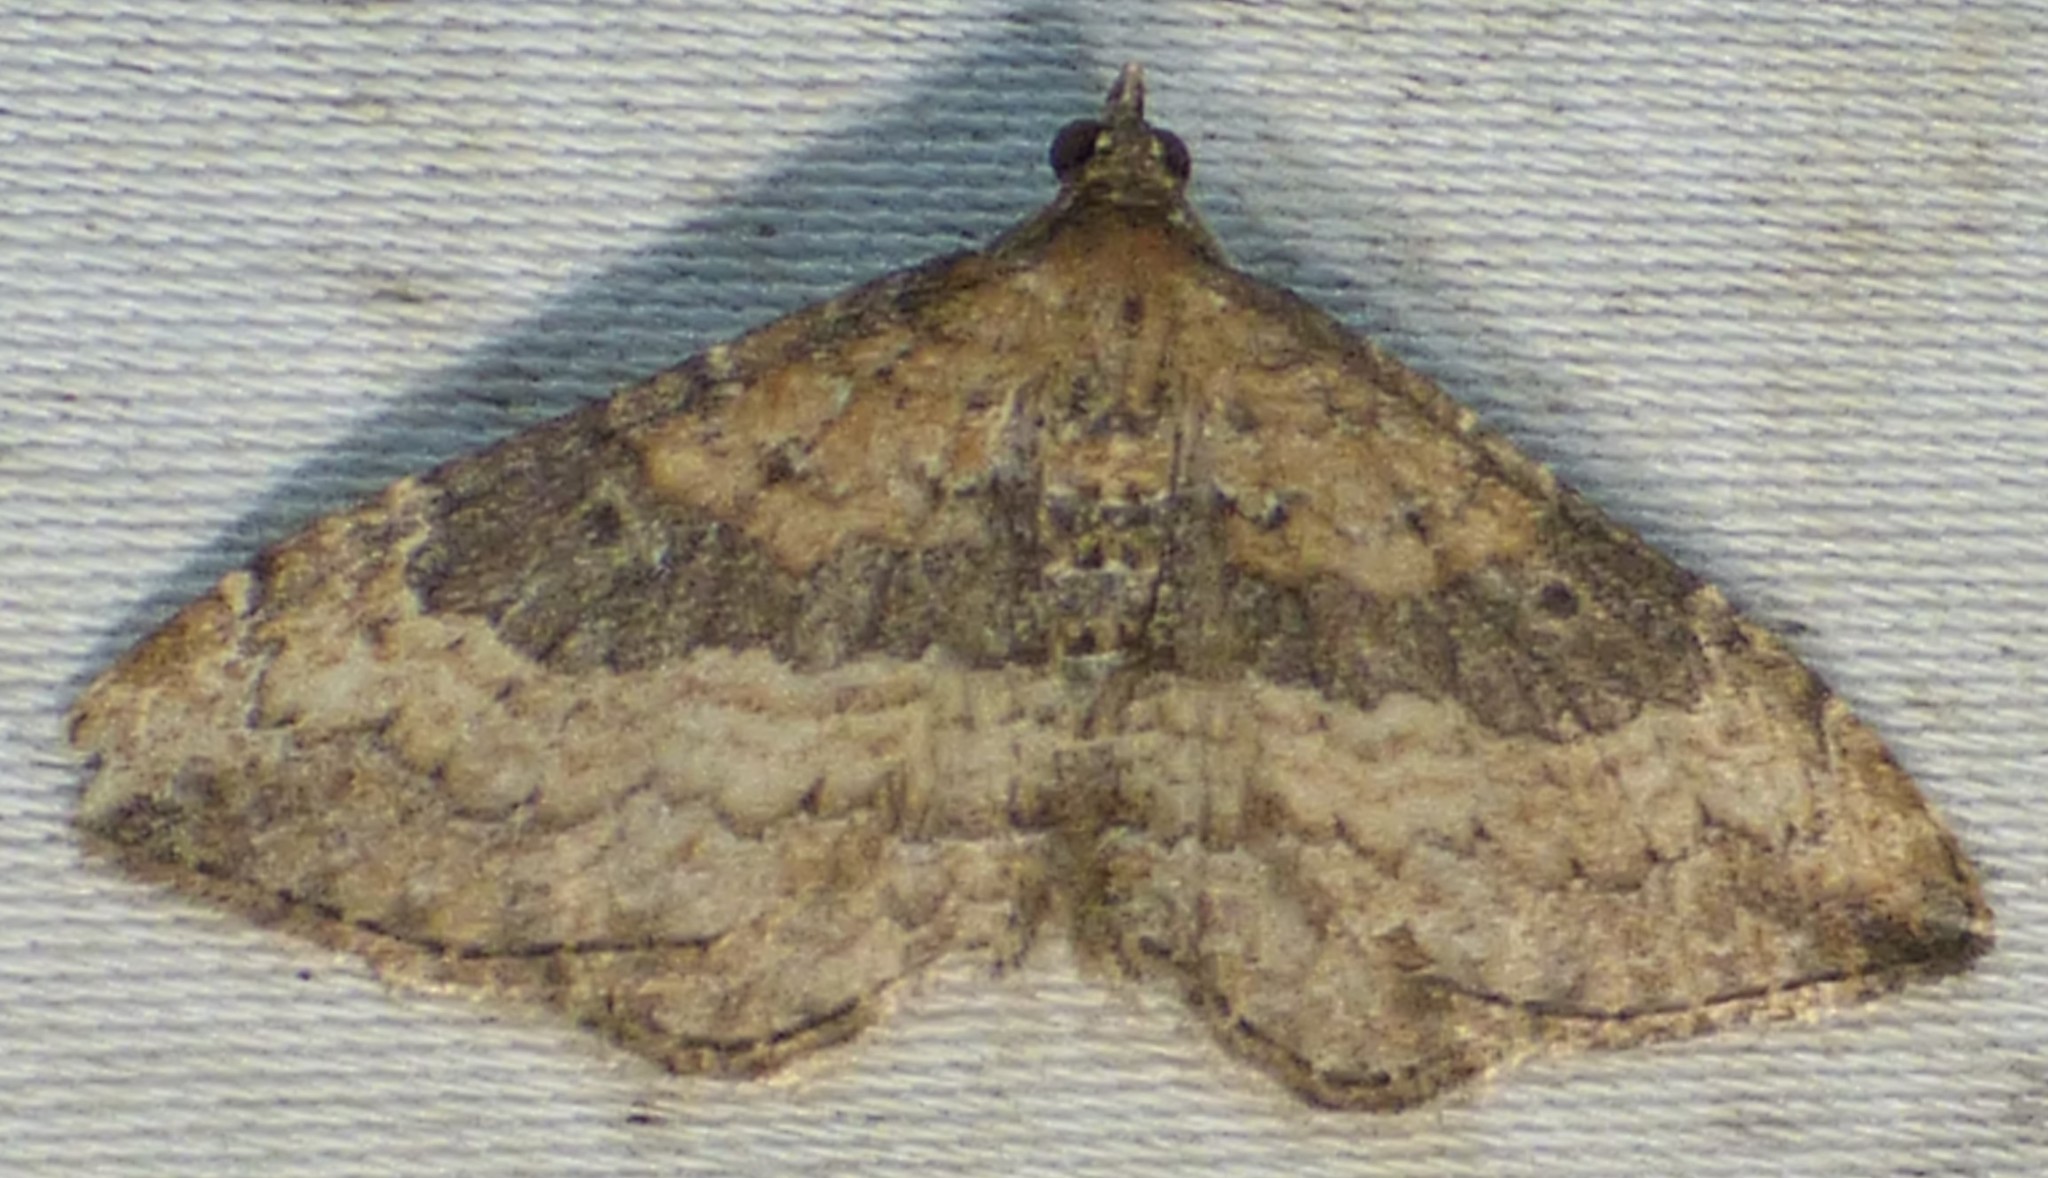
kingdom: Animalia
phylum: Arthropoda
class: Insecta
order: Lepidoptera
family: Geometridae
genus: Orthonama
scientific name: Orthonama obstipata
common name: The gem
